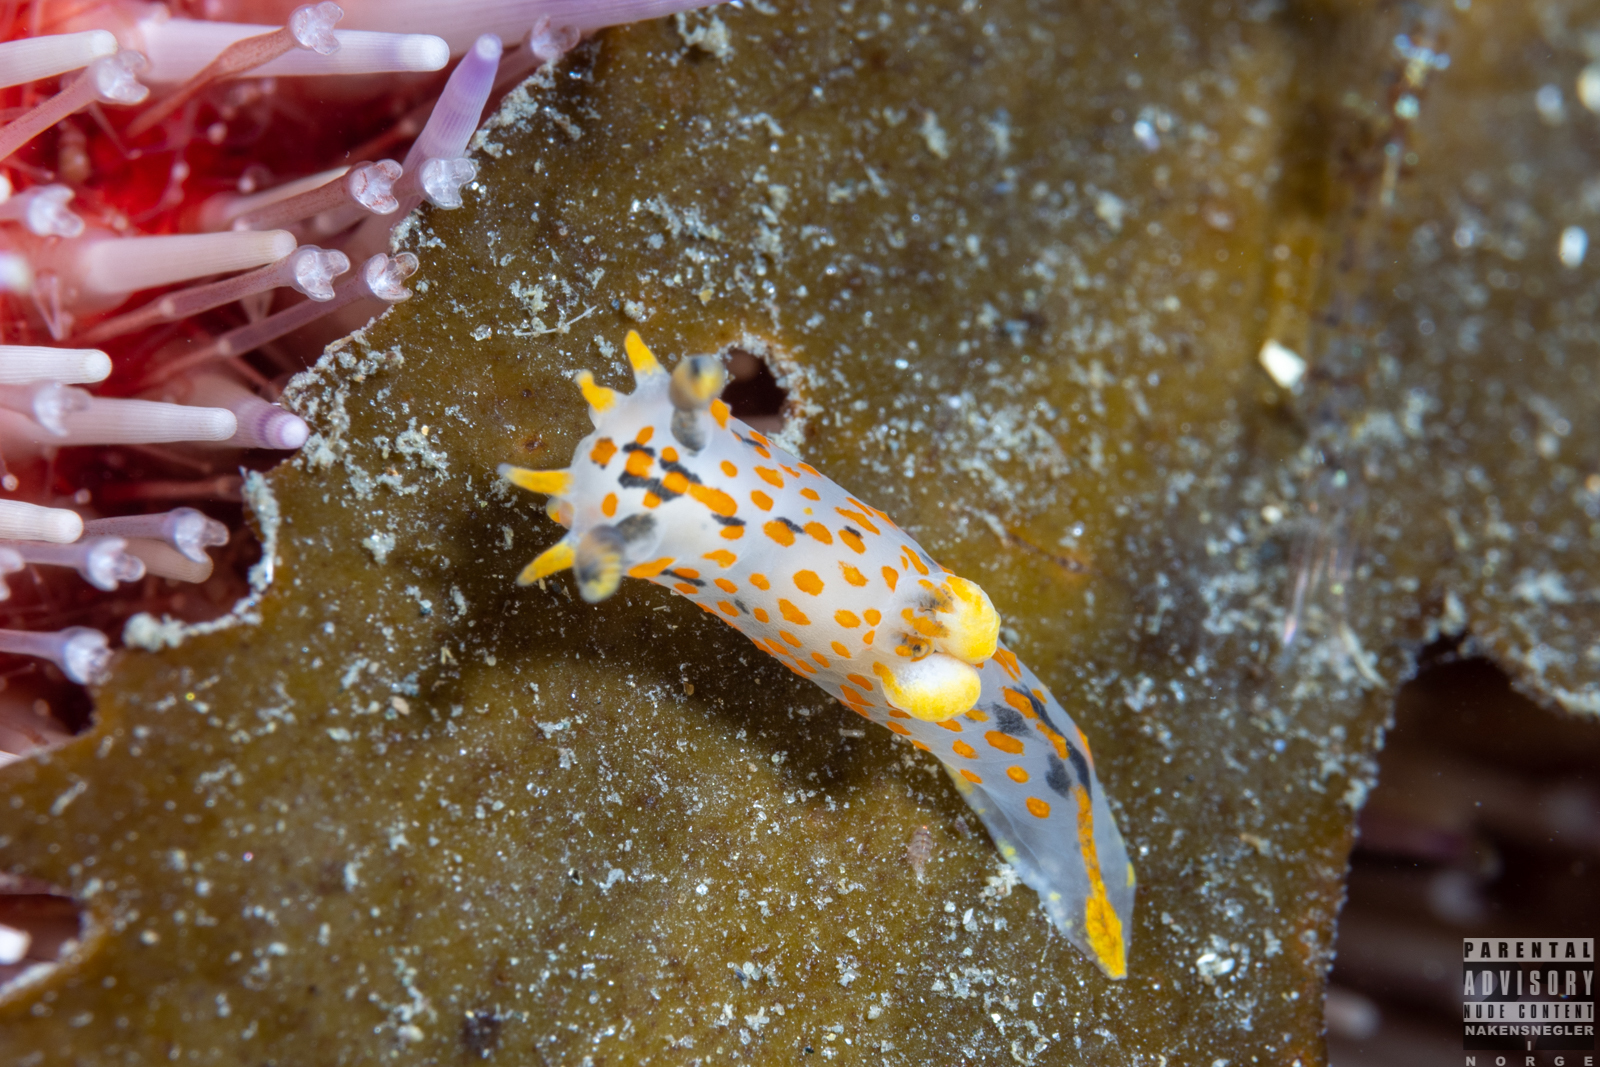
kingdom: Animalia
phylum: Mollusca
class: Gastropoda
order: Nudibranchia
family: Polyceridae
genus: Polycera
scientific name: Polycera quadrilineata
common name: Four-striped polycera
